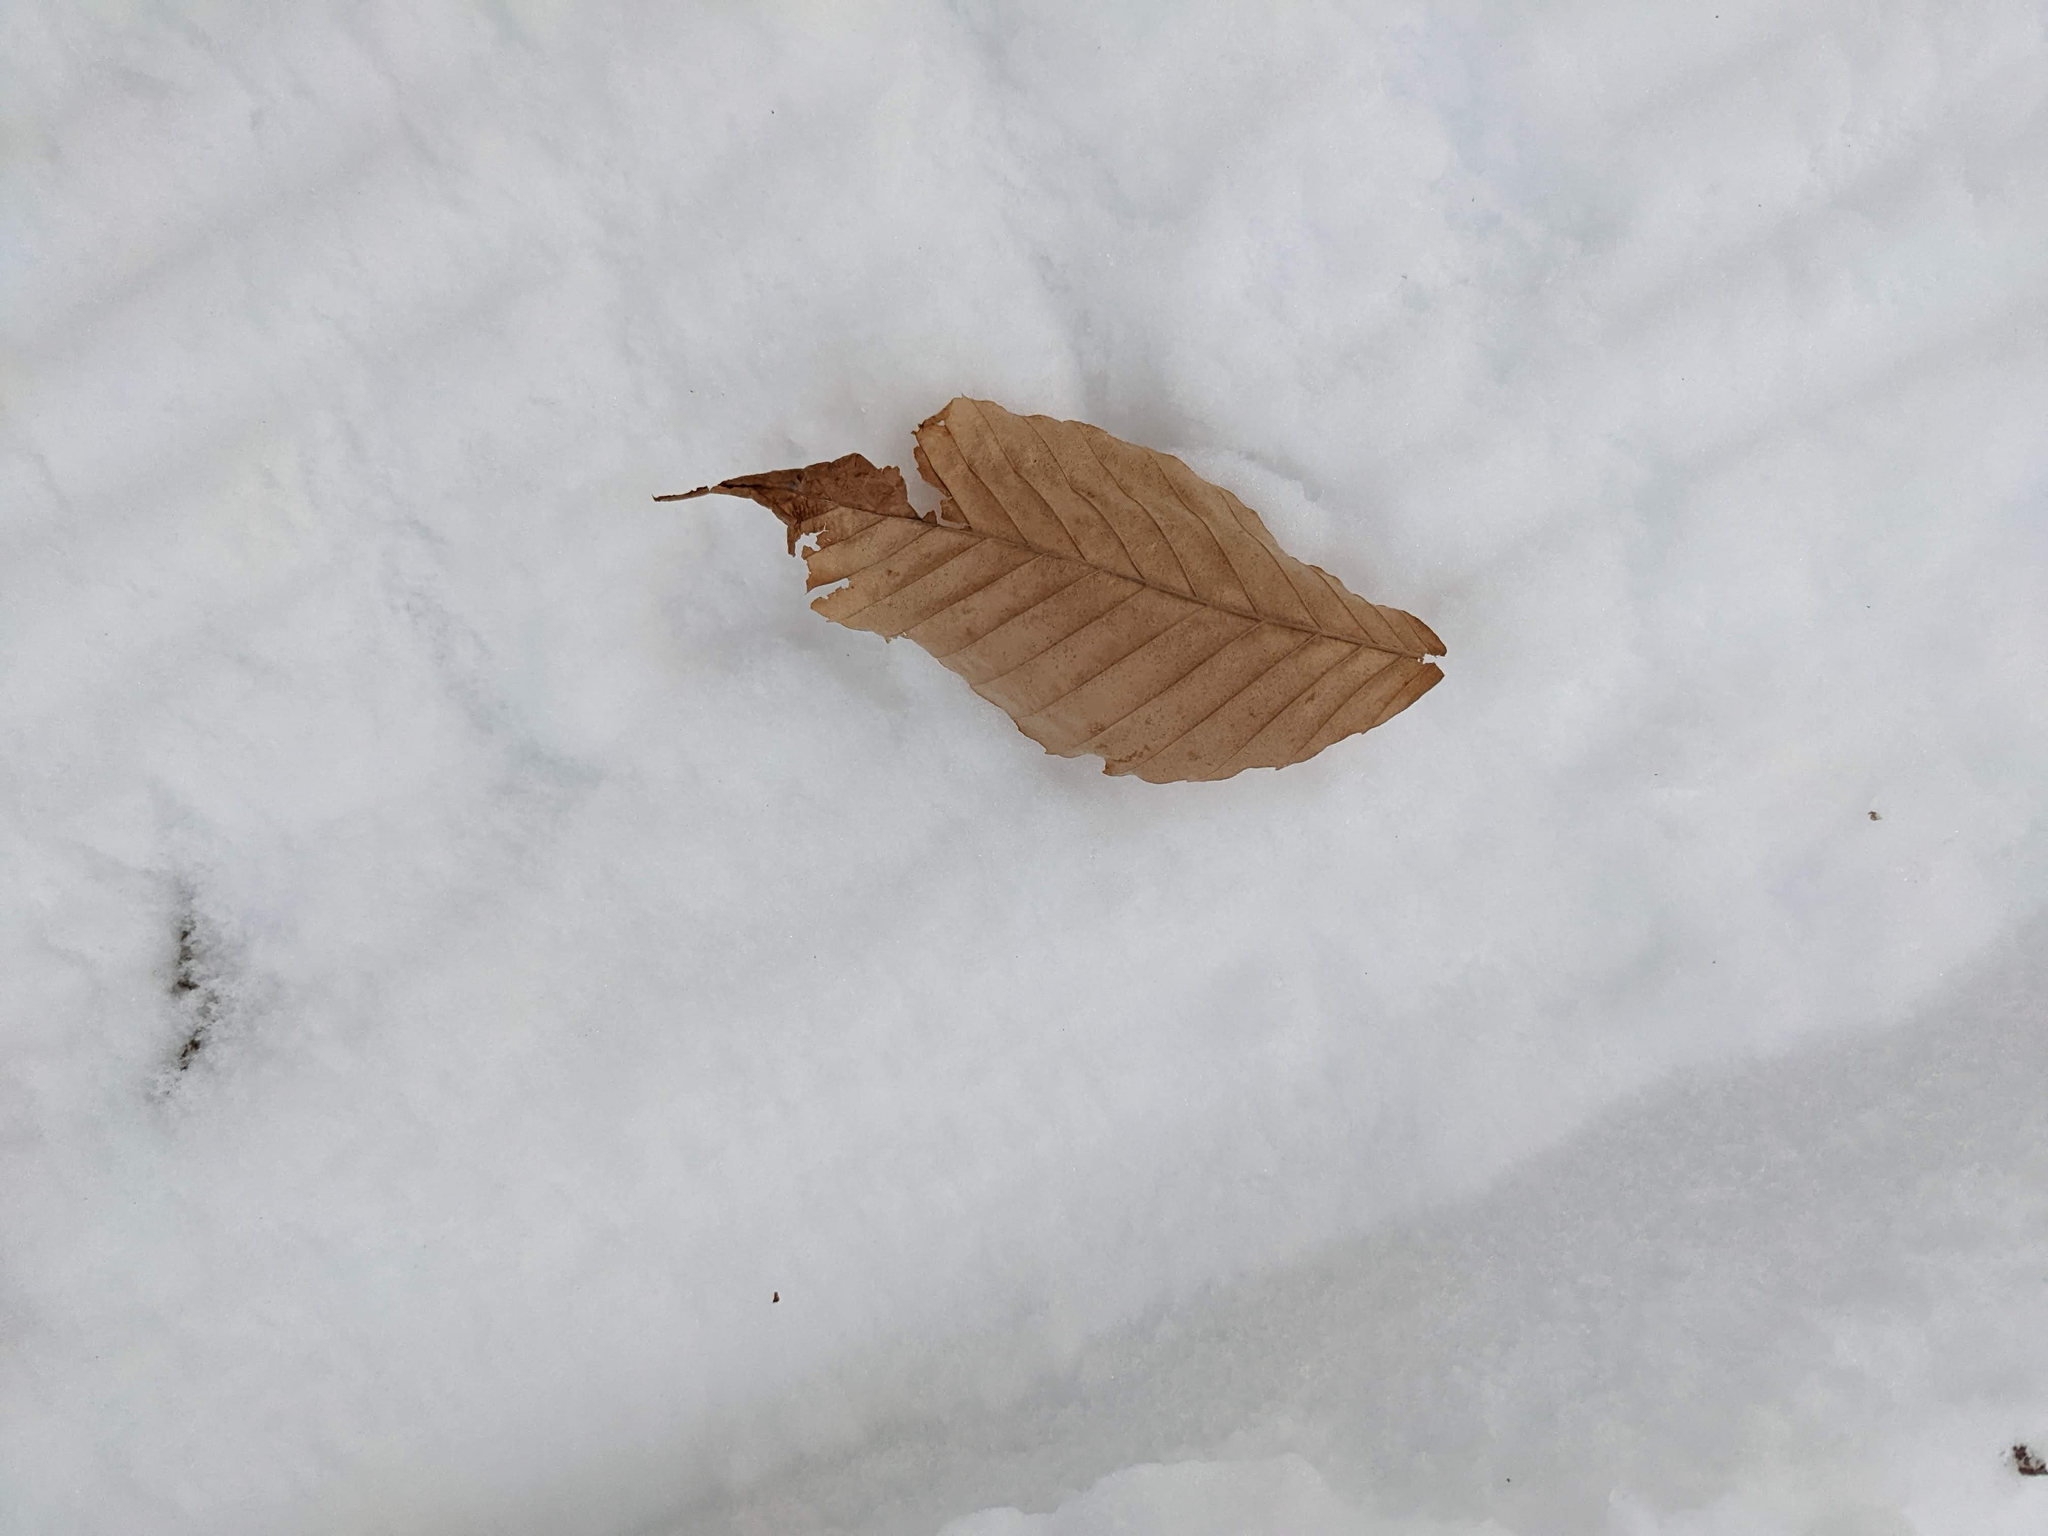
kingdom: Plantae
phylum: Tracheophyta
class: Magnoliopsida
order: Fagales
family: Fagaceae
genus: Fagus
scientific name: Fagus grandifolia
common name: American beech
